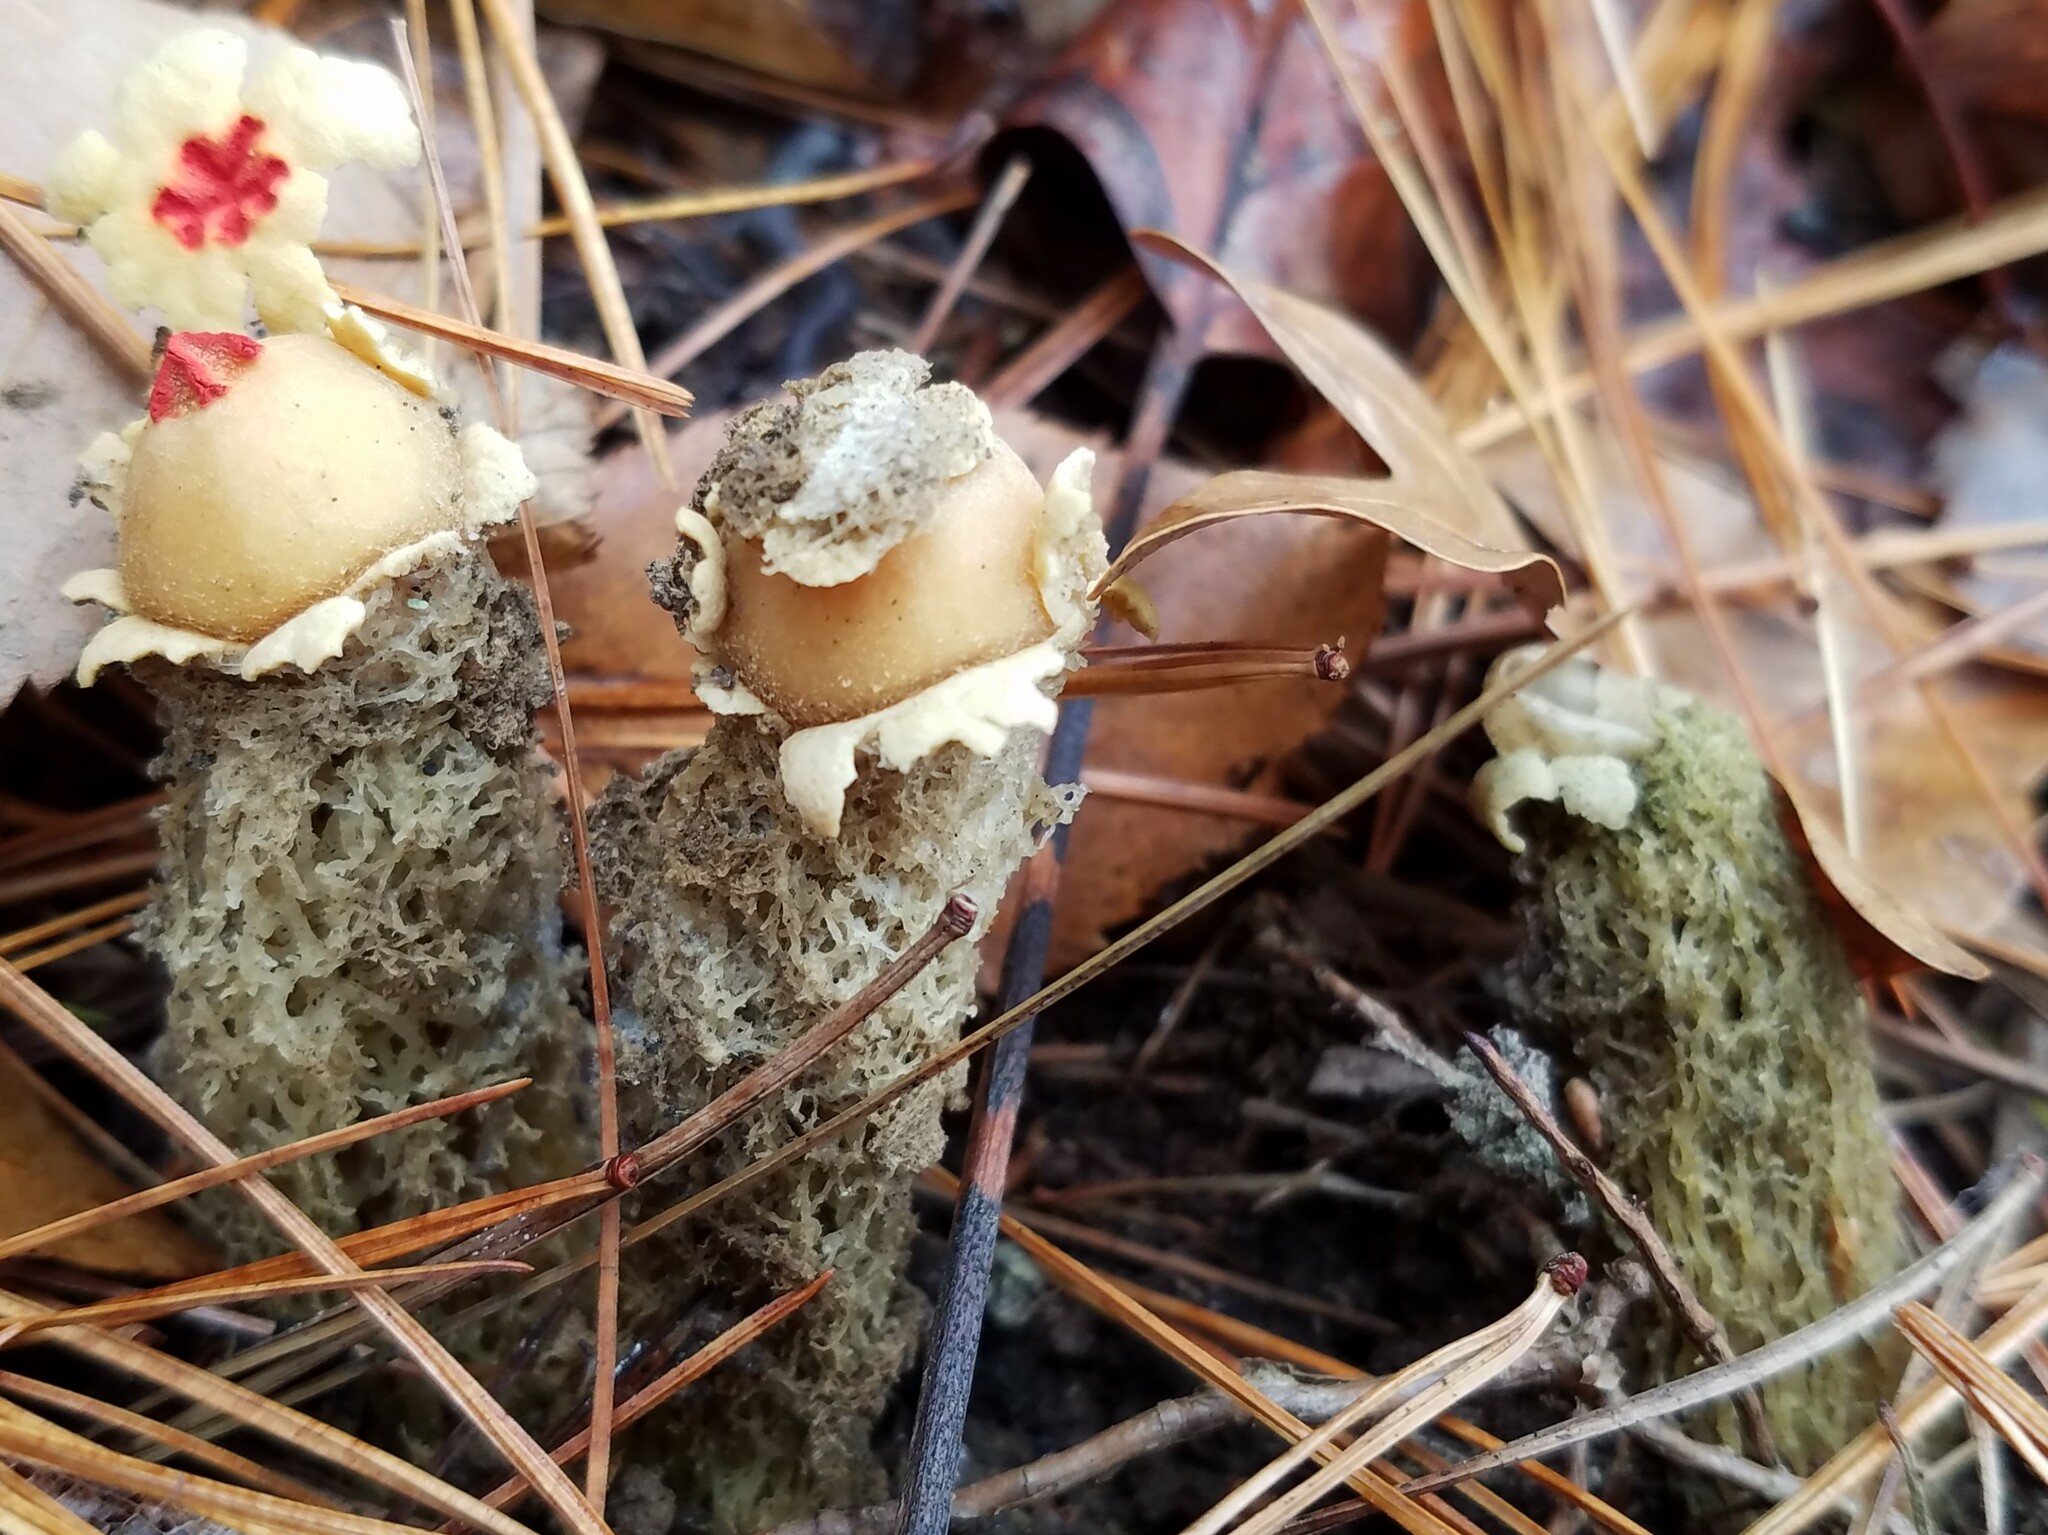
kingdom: Fungi
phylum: Basidiomycota
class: Agaricomycetes
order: Boletales
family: Calostomataceae
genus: Calostoma
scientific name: Calostoma lutescens
